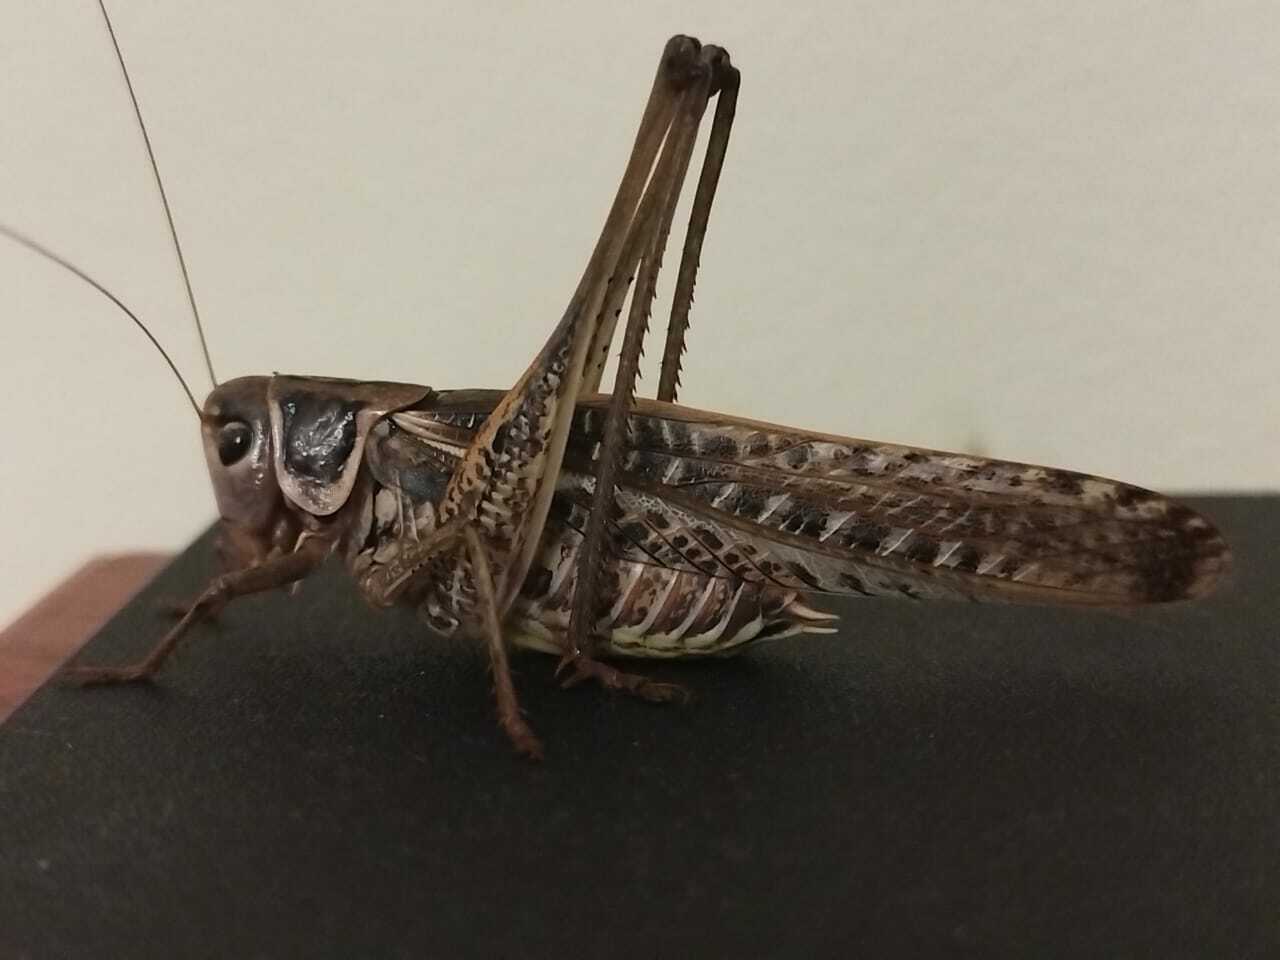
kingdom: Animalia
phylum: Arthropoda
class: Insecta
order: Orthoptera
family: Tettigoniidae
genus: Decticus
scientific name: Decticus albifrons
